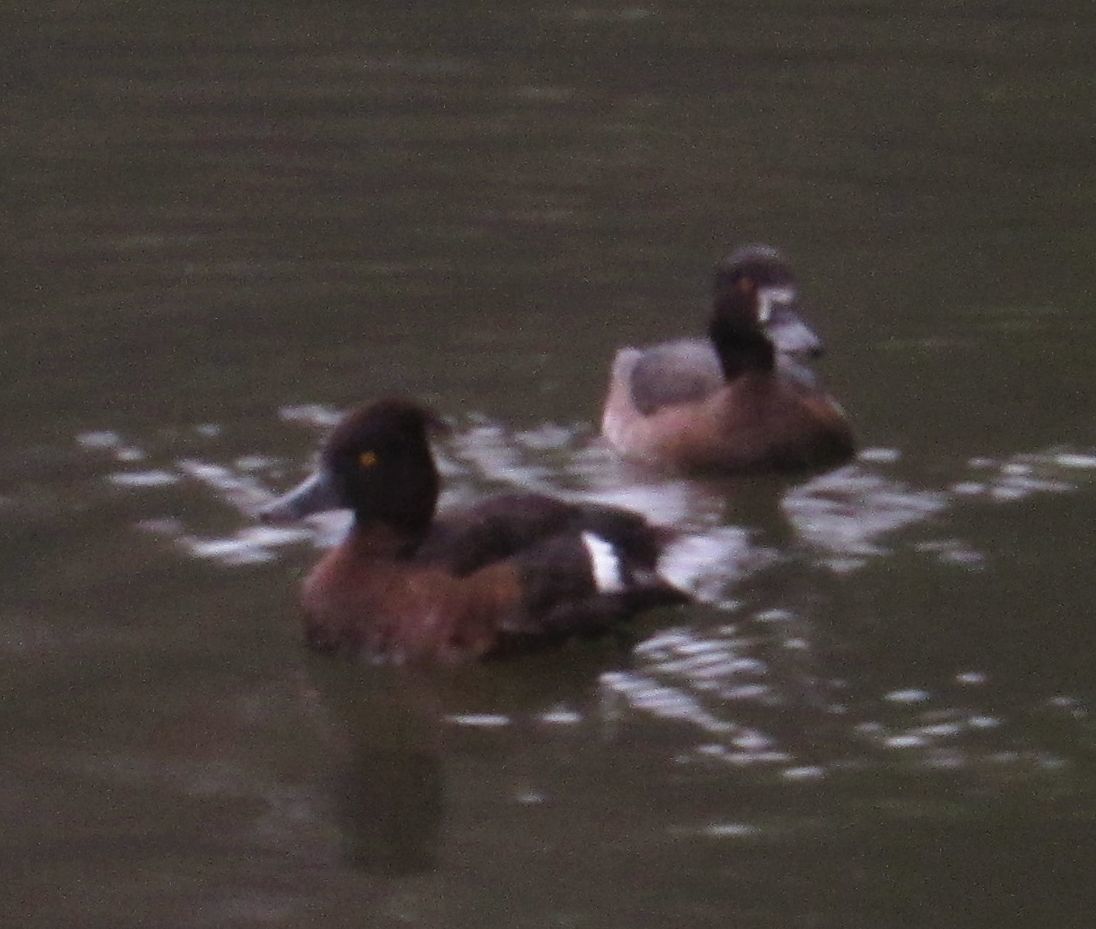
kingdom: Animalia
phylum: Chordata
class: Aves
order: Anseriformes
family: Anatidae
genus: Aythya
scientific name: Aythya fuligula
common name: Tufted duck
